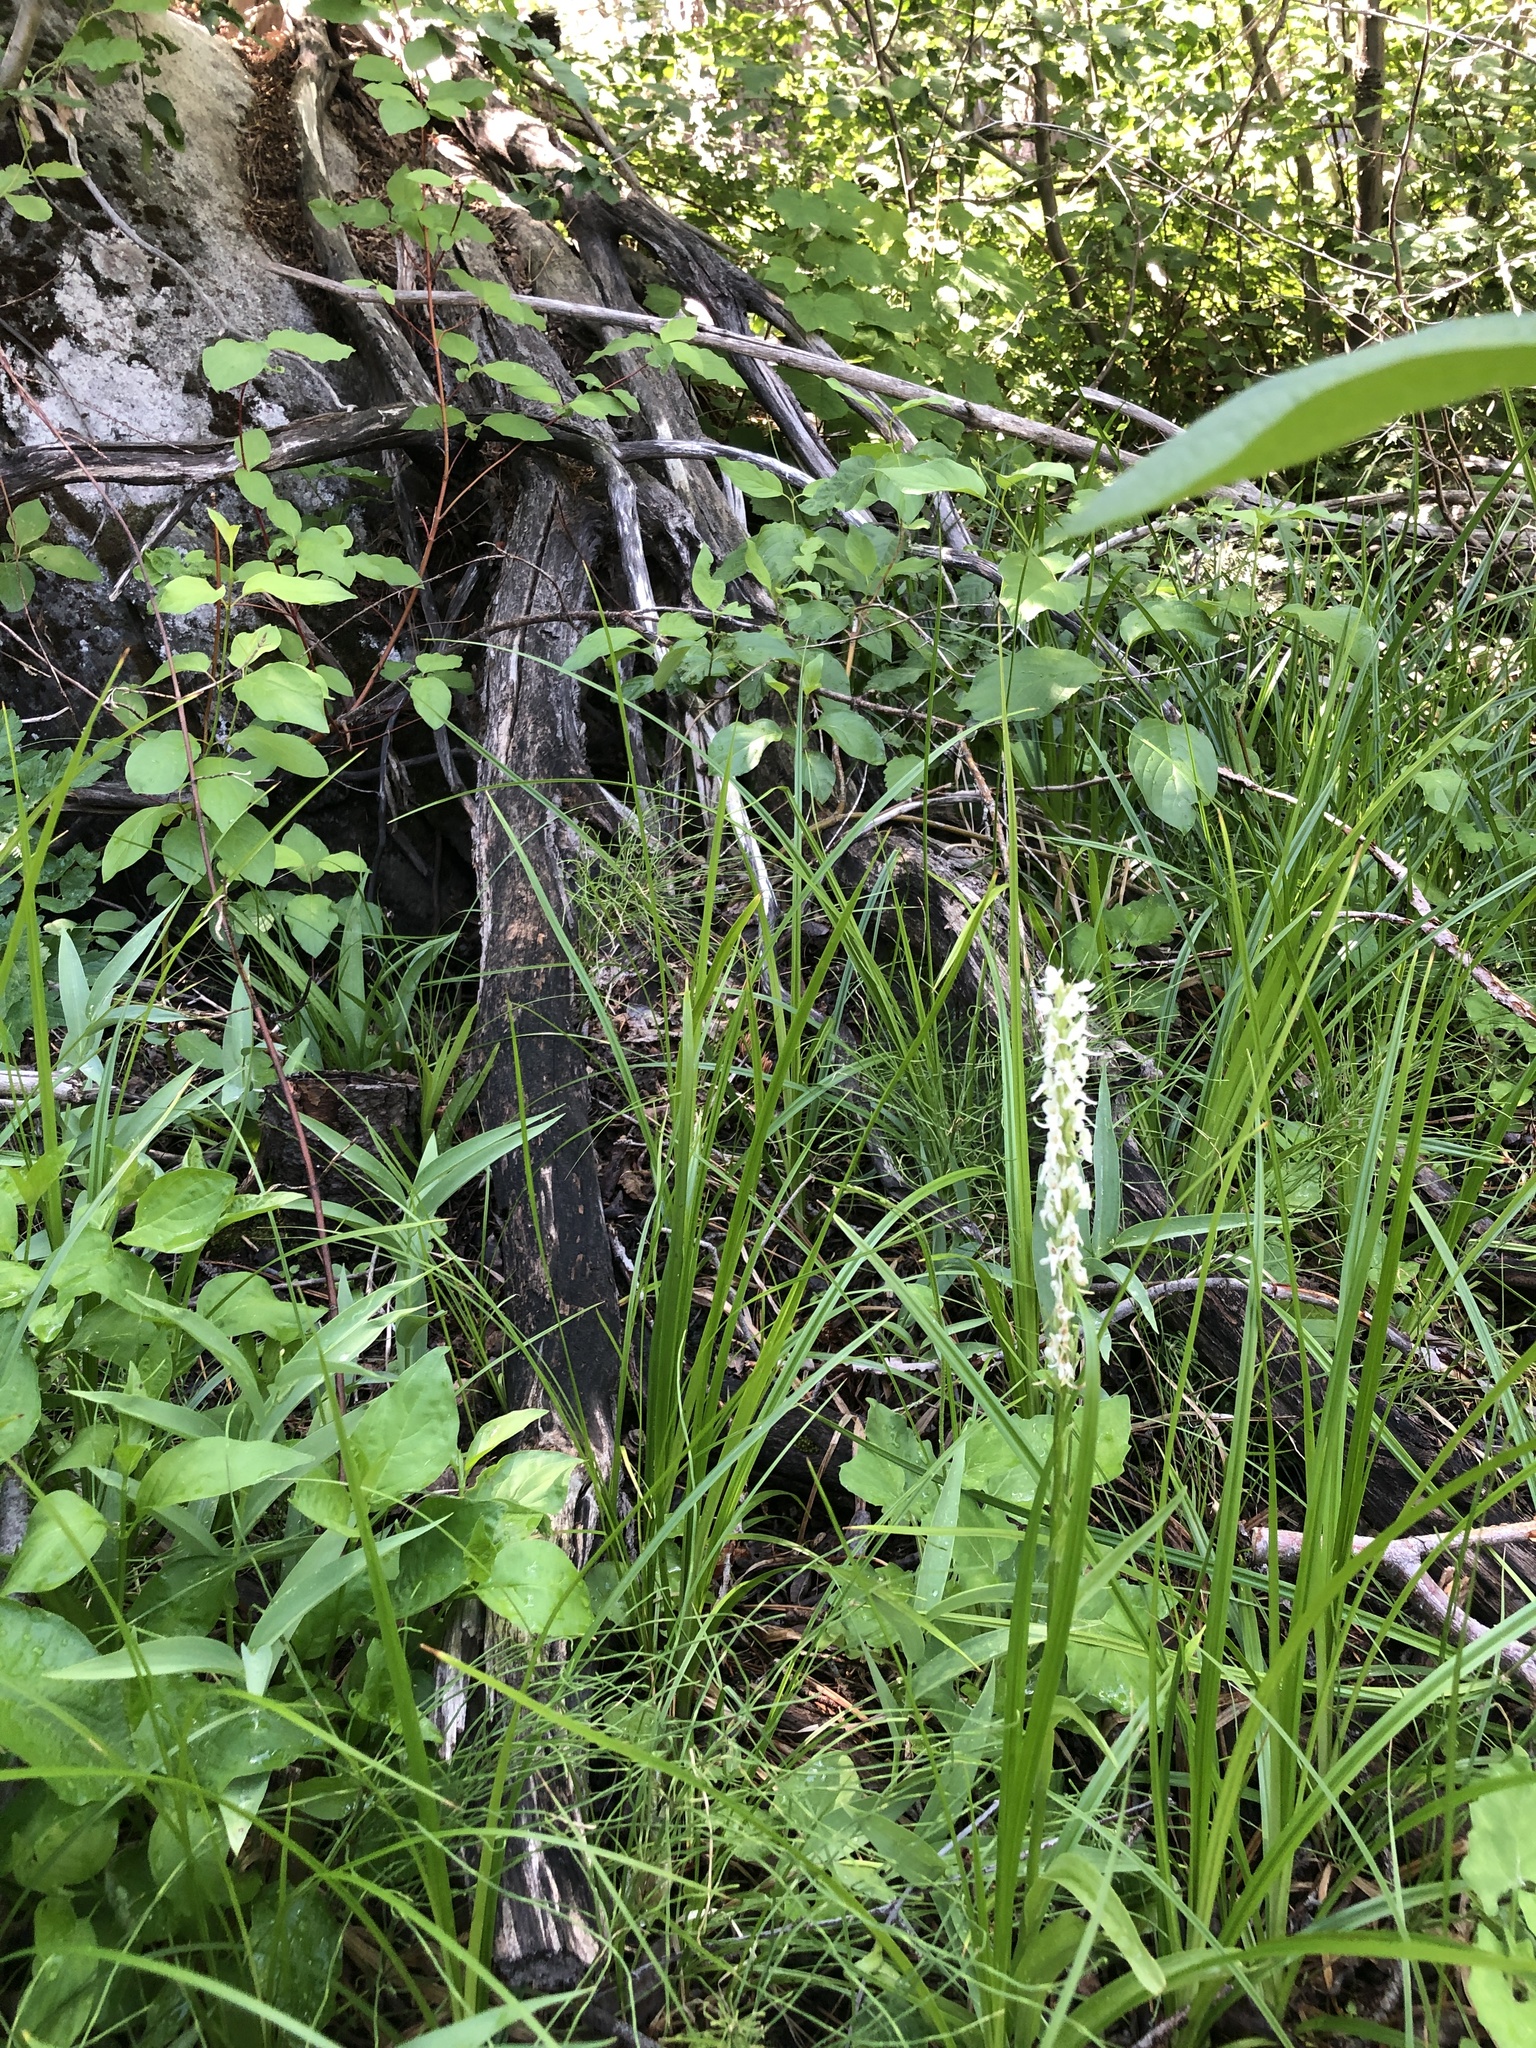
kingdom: Plantae
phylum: Tracheophyta
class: Liliopsida
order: Asparagales
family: Orchidaceae
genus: Platanthera
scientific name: Platanthera dilatata
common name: Bog candles
